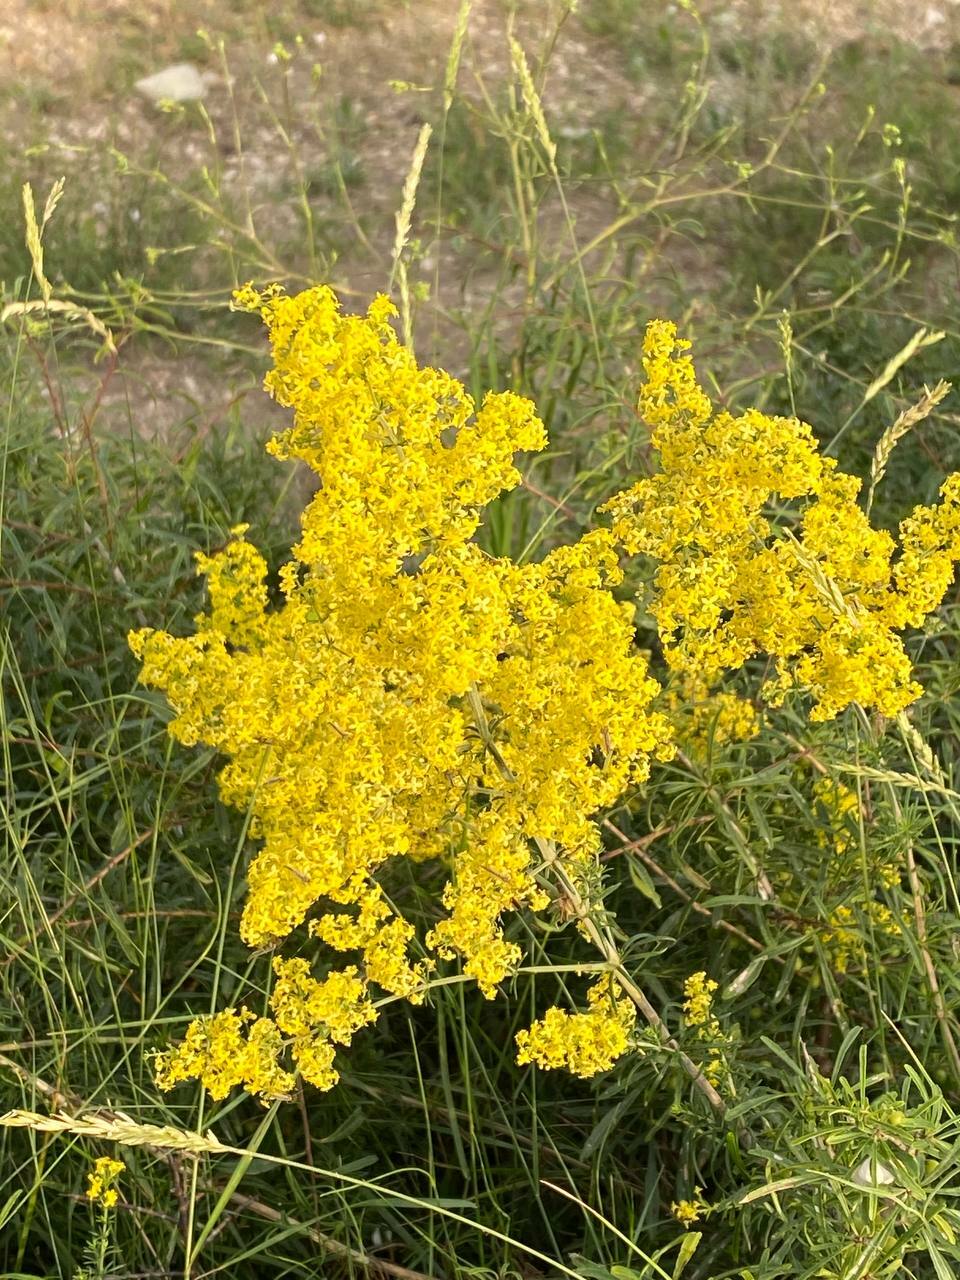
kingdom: Plantae
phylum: Tracheophyta
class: Magnoliopsida
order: Gentianales
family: Rubiaceae
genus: Galium
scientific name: Galium verum
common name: Lady's bedstraw
